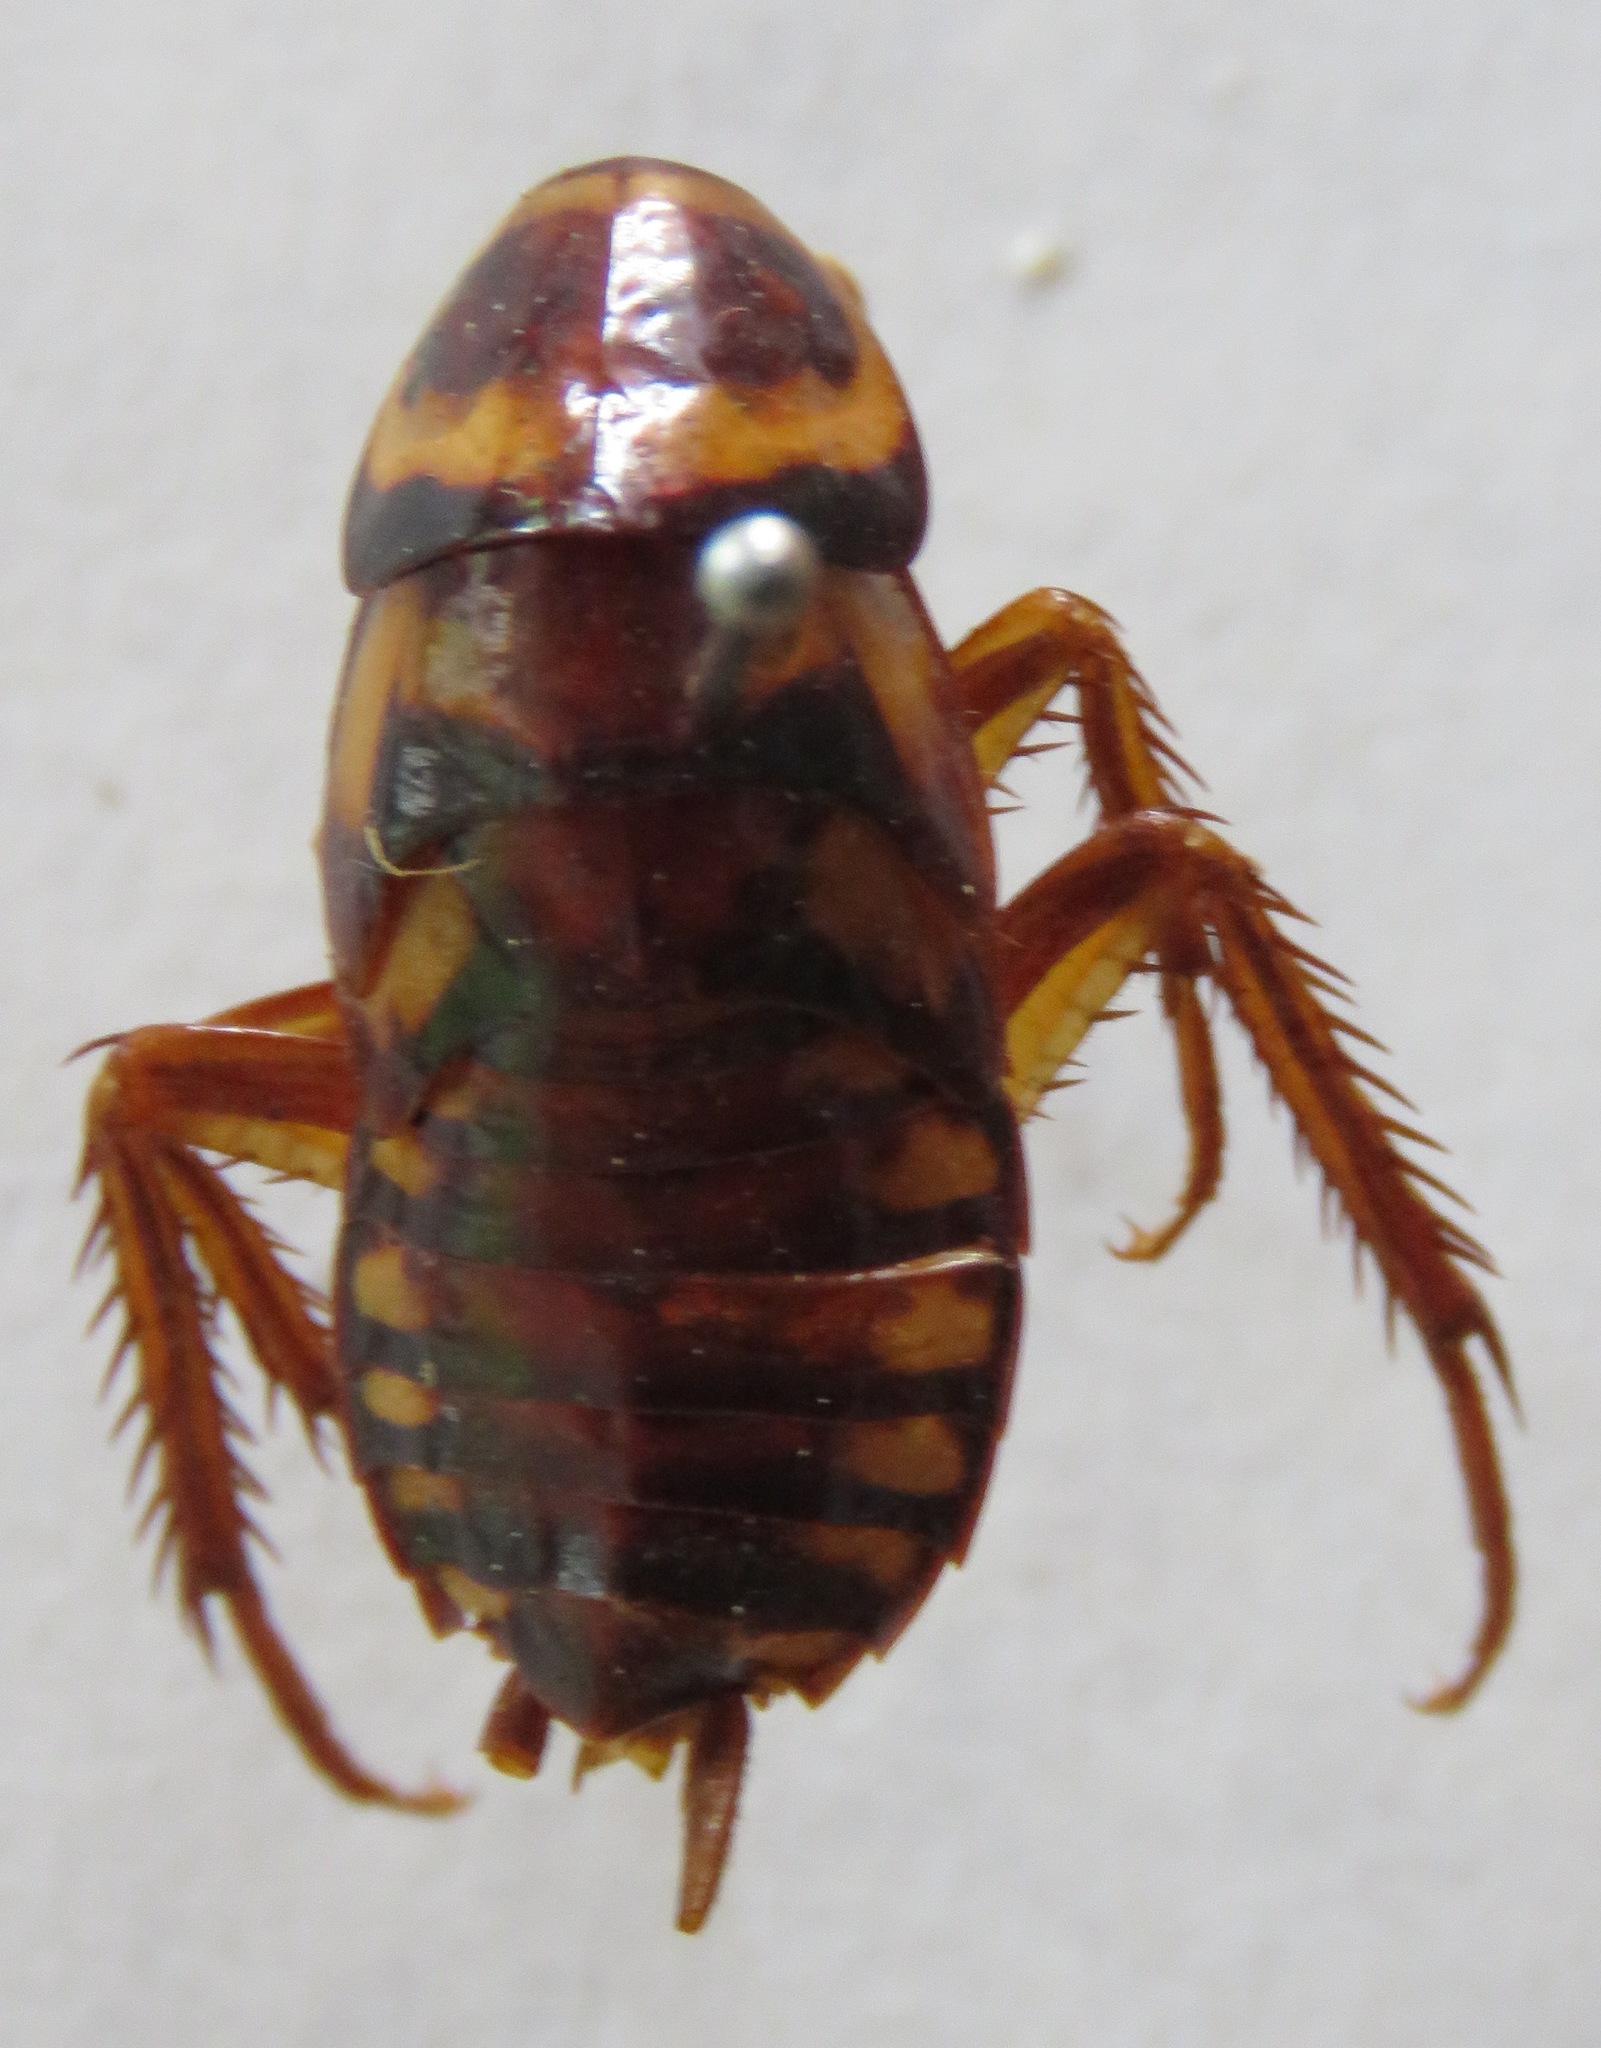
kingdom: Animalia
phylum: Arthropoda
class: Insecta
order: Blattodea
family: Blattidae
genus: Periplaneta
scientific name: Periplaneta australasiae
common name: Australian cockroach
